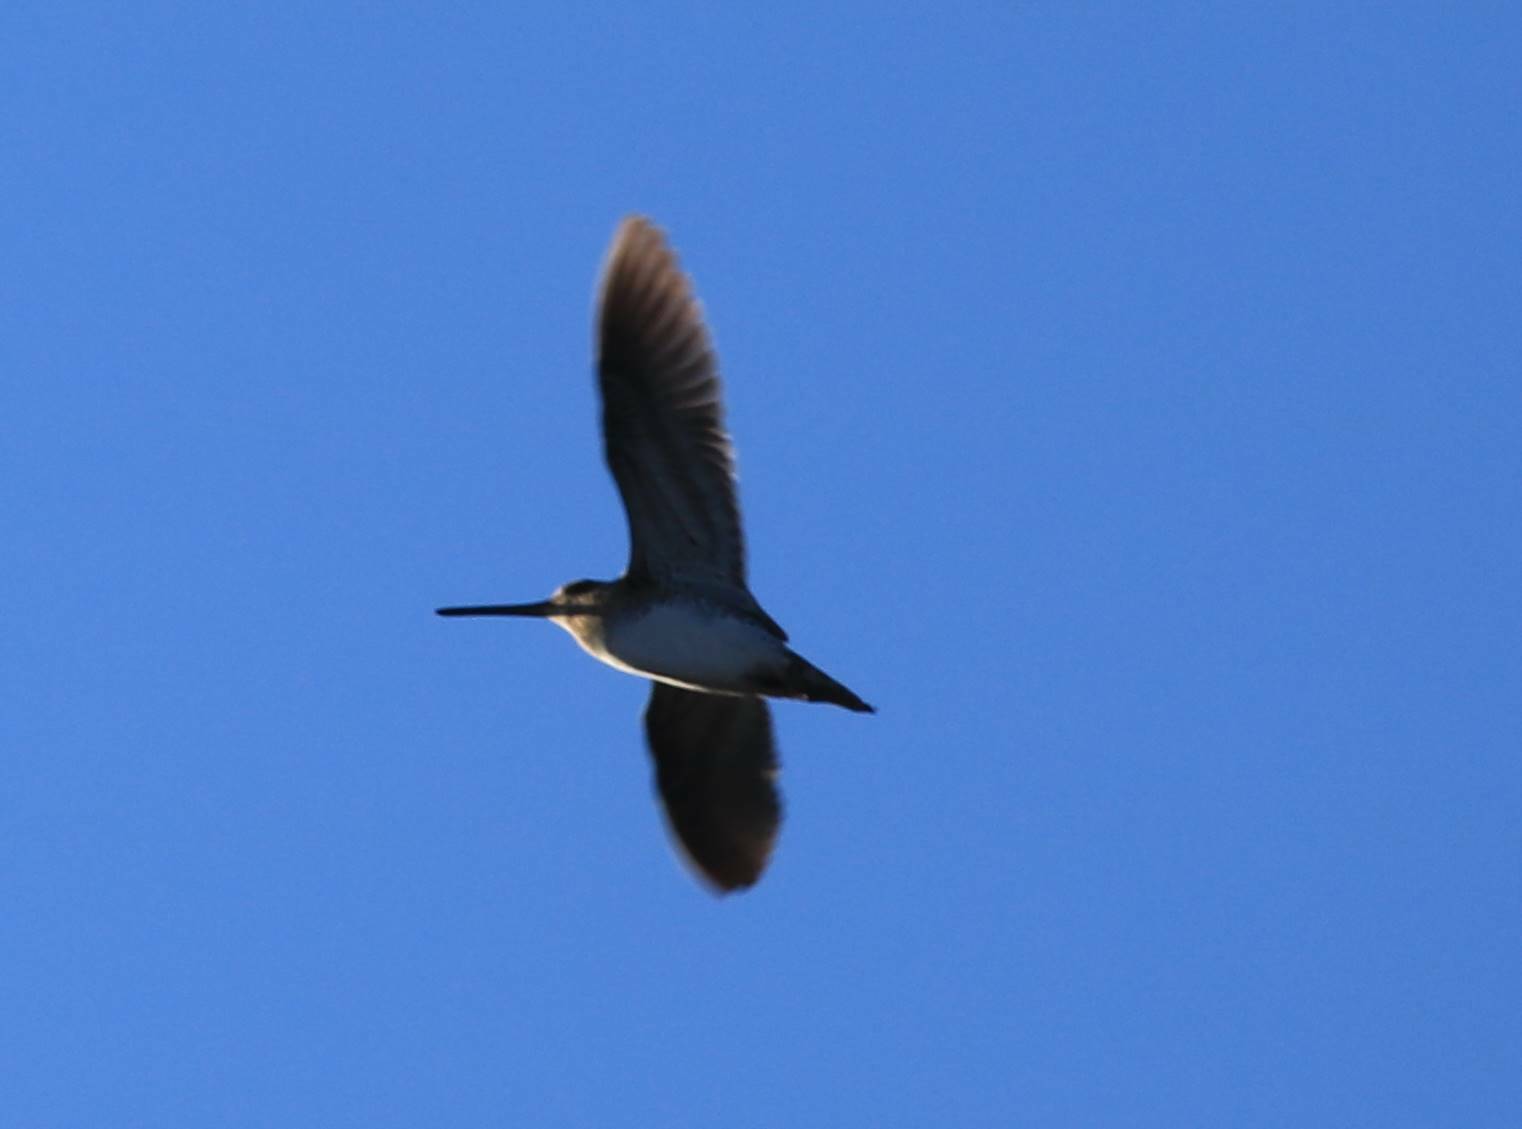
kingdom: Animalia
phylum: Chordata
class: Aves
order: Charadriiformes
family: Scolopacidae
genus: Gallinago
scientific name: Gallinago gallinago
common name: Common snipe
